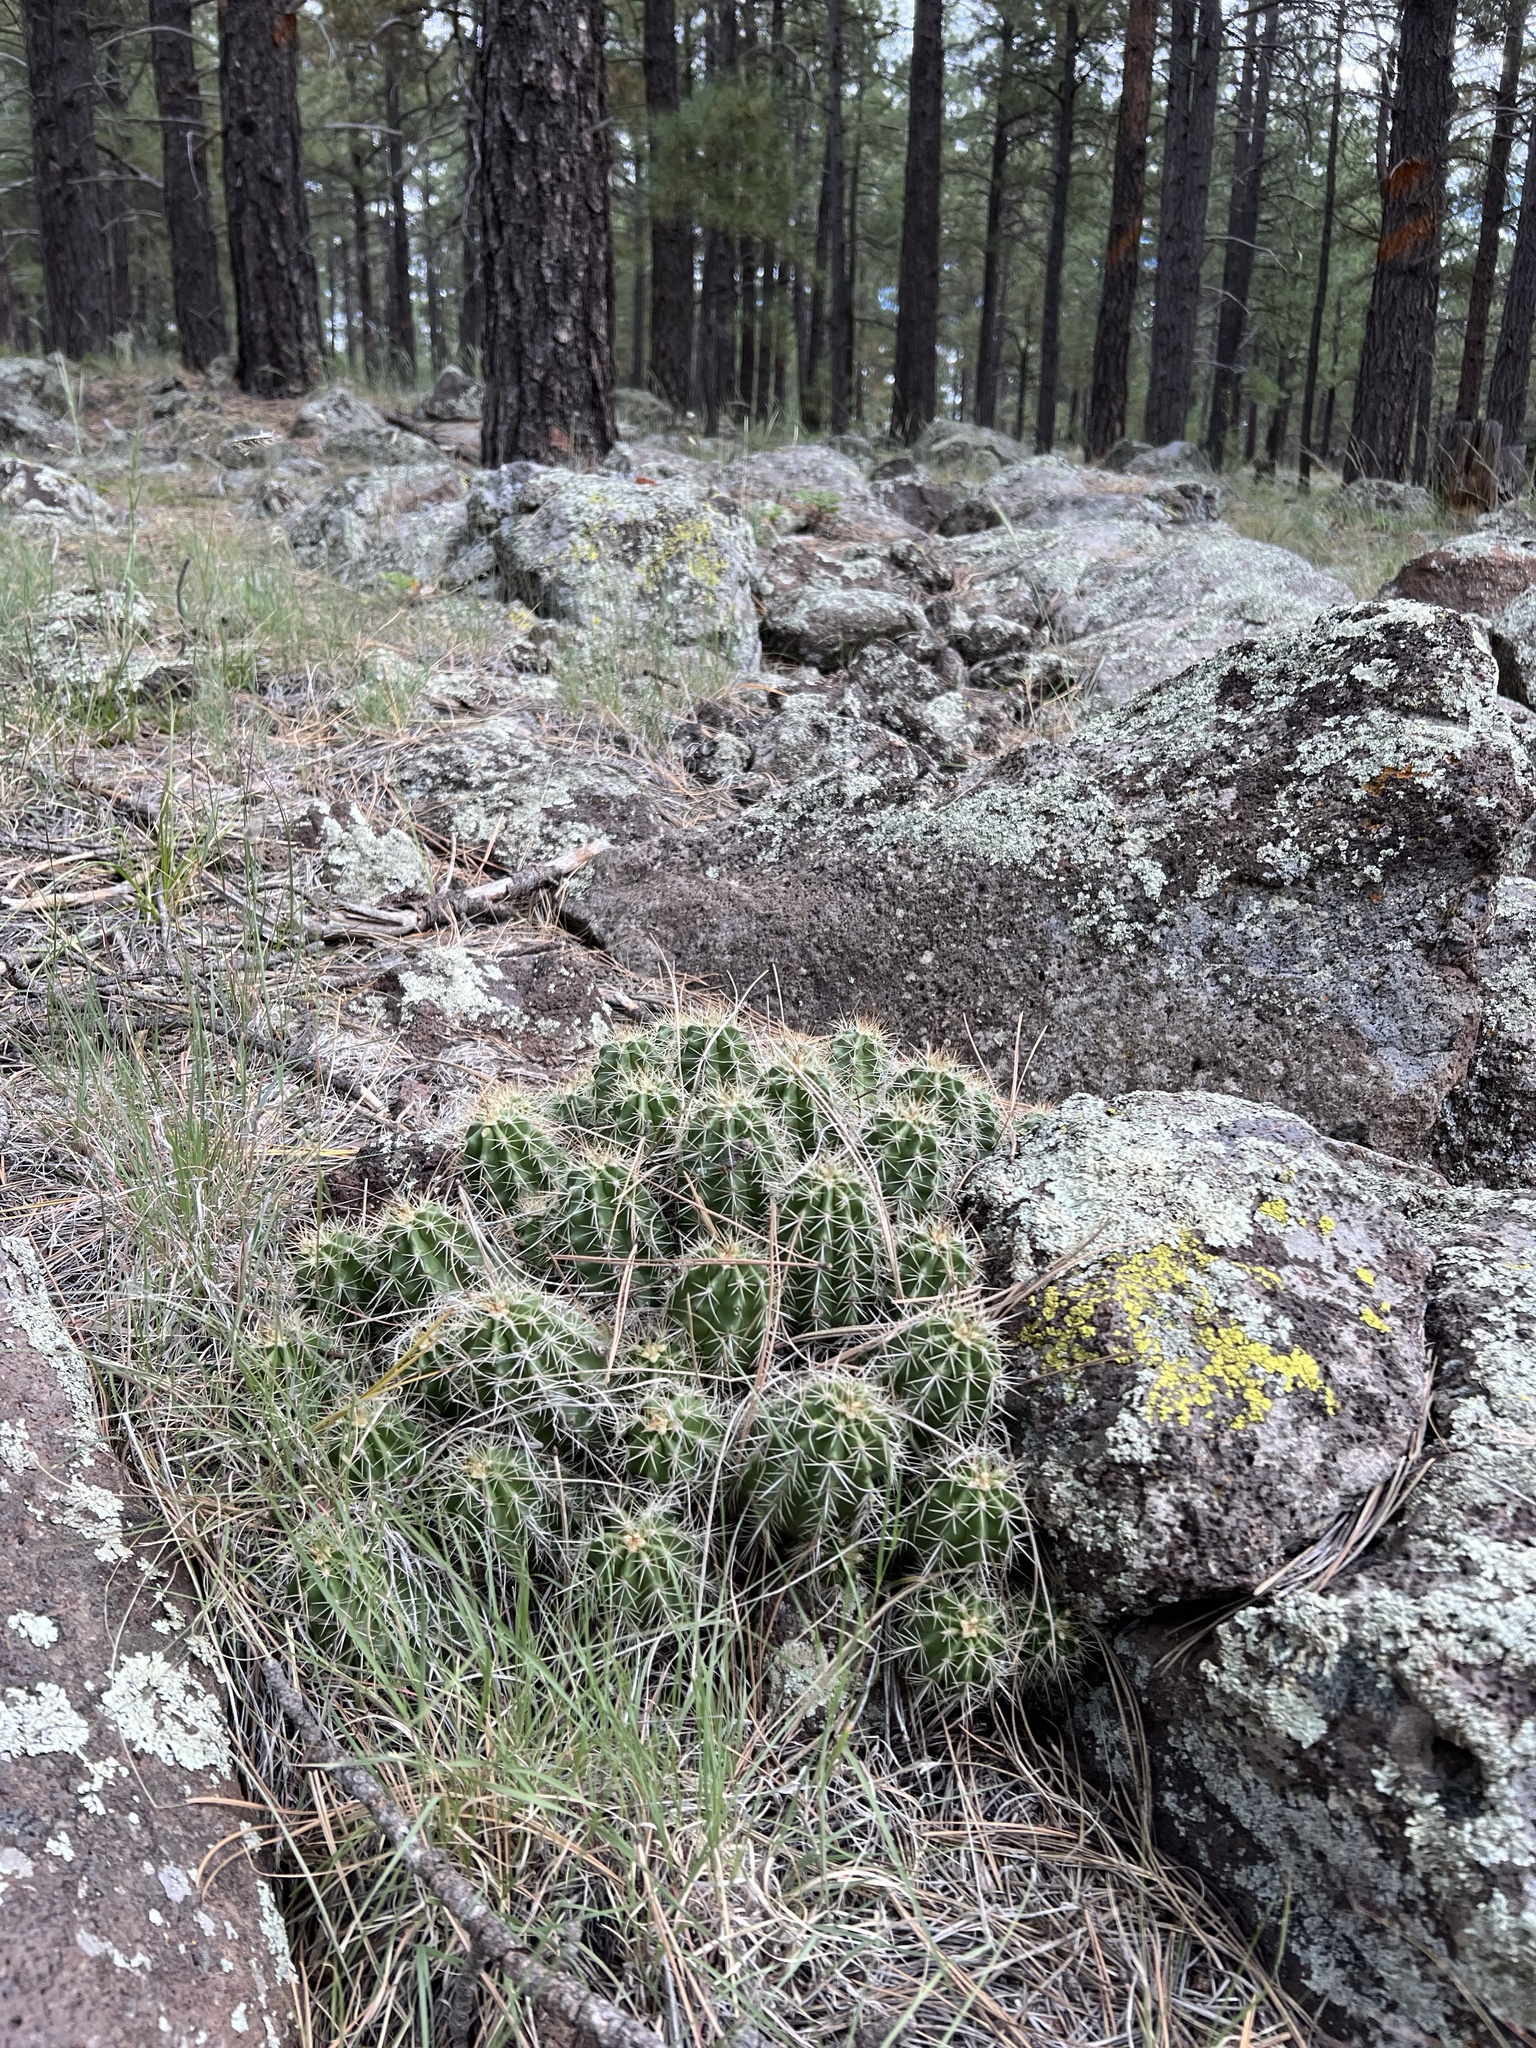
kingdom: Plantae
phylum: Tracheophyta
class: Magnoliopsida
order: Caryophyllales
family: Cactaceae
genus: Echinocereus
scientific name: Echinocereus bakeri
